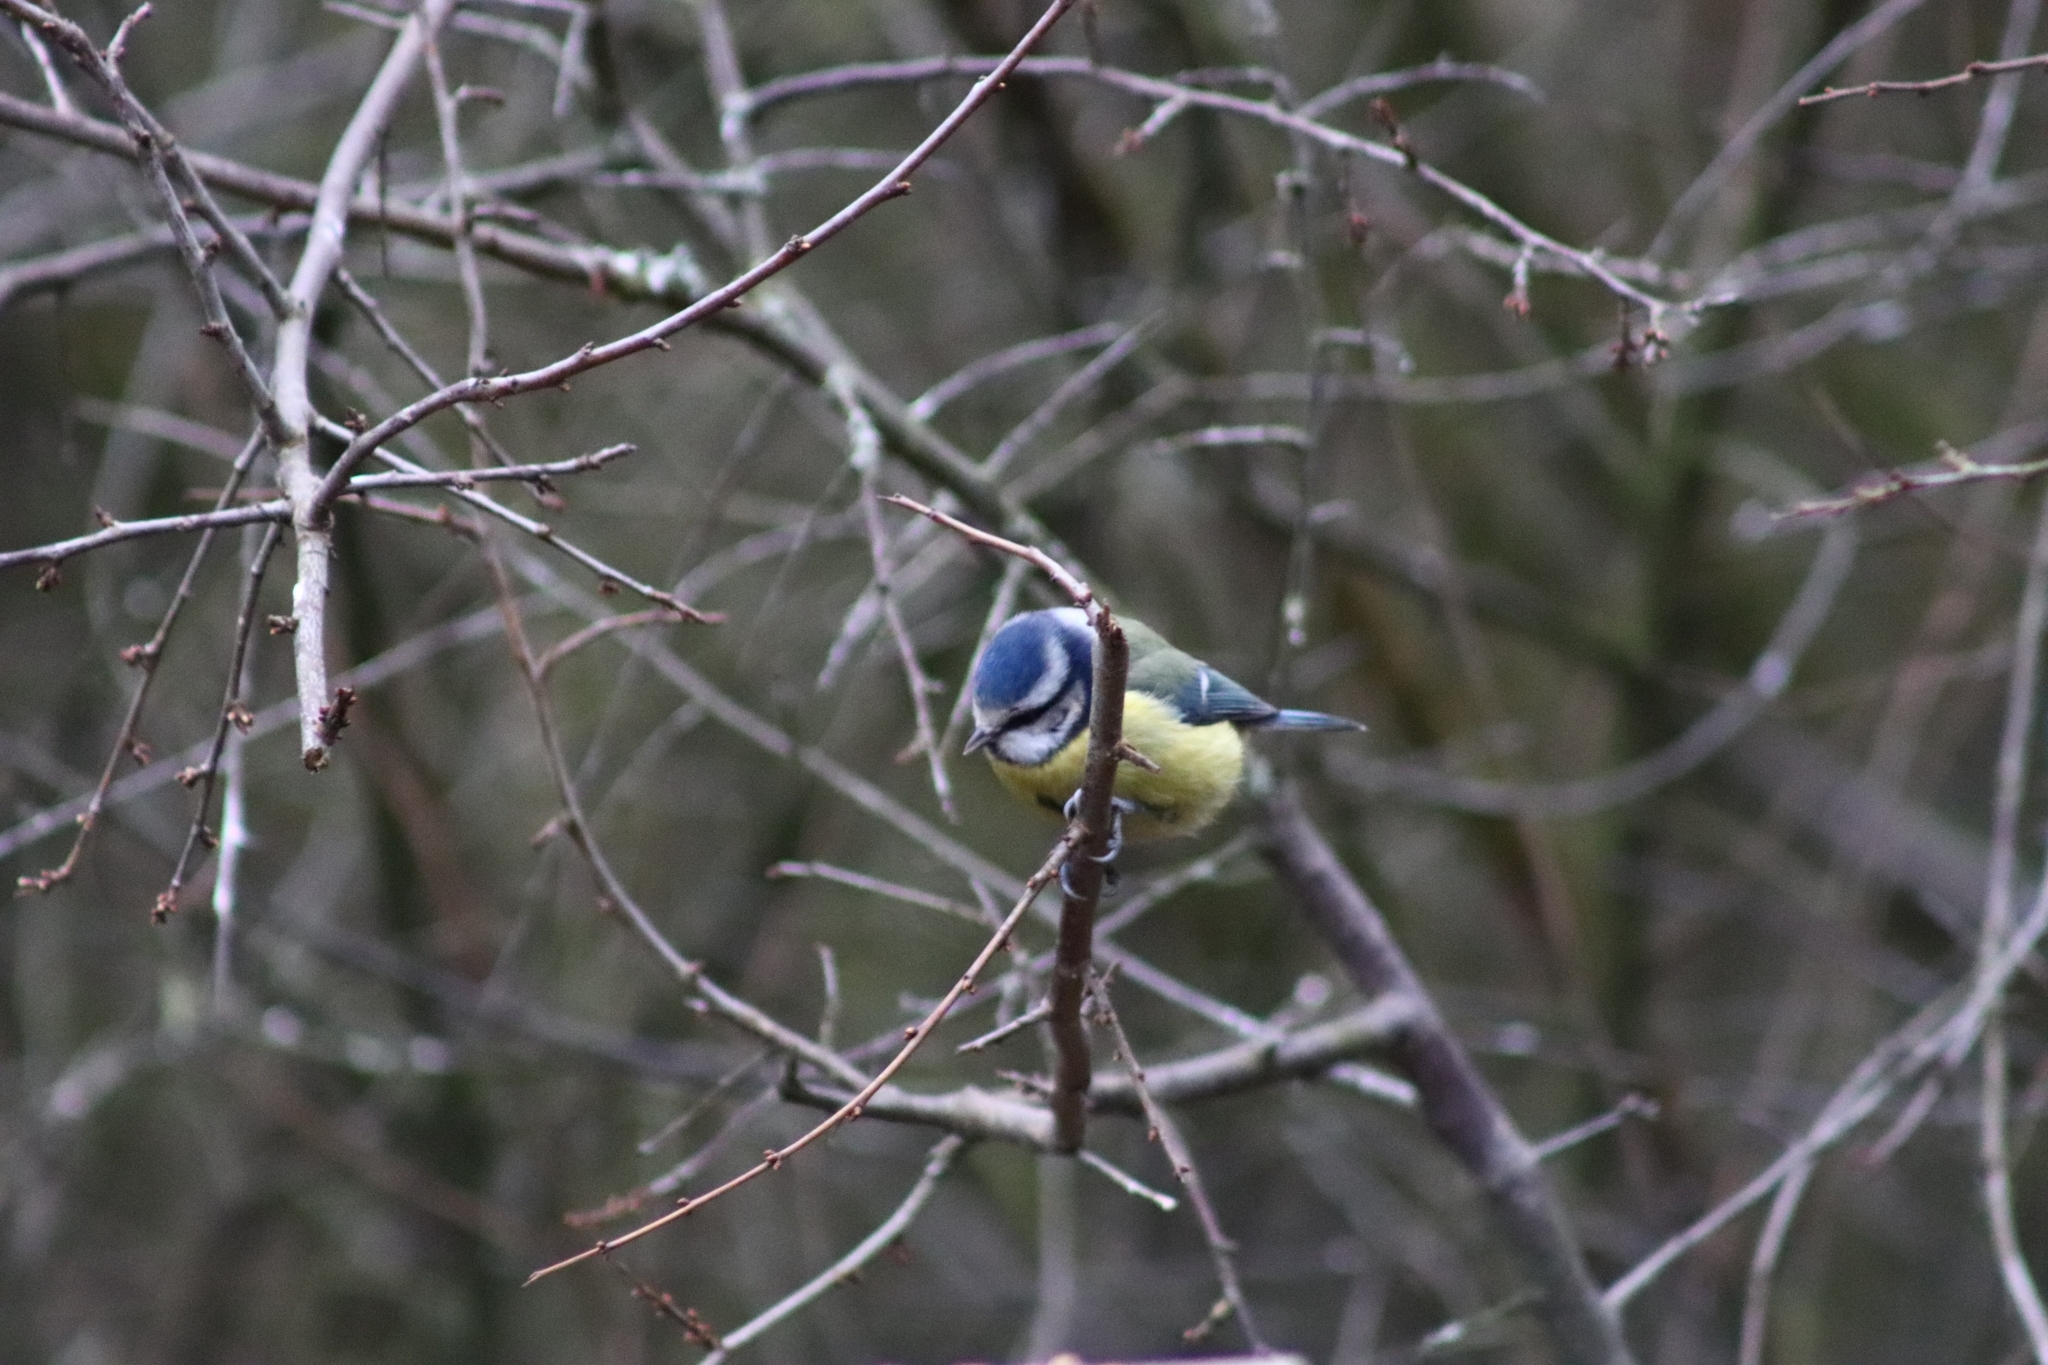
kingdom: Animalia
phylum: Chordata
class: Aves
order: Passeriformes
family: Paridae
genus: Cyanistes
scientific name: Cyanistes caeruleus
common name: Eurasian blue tit
